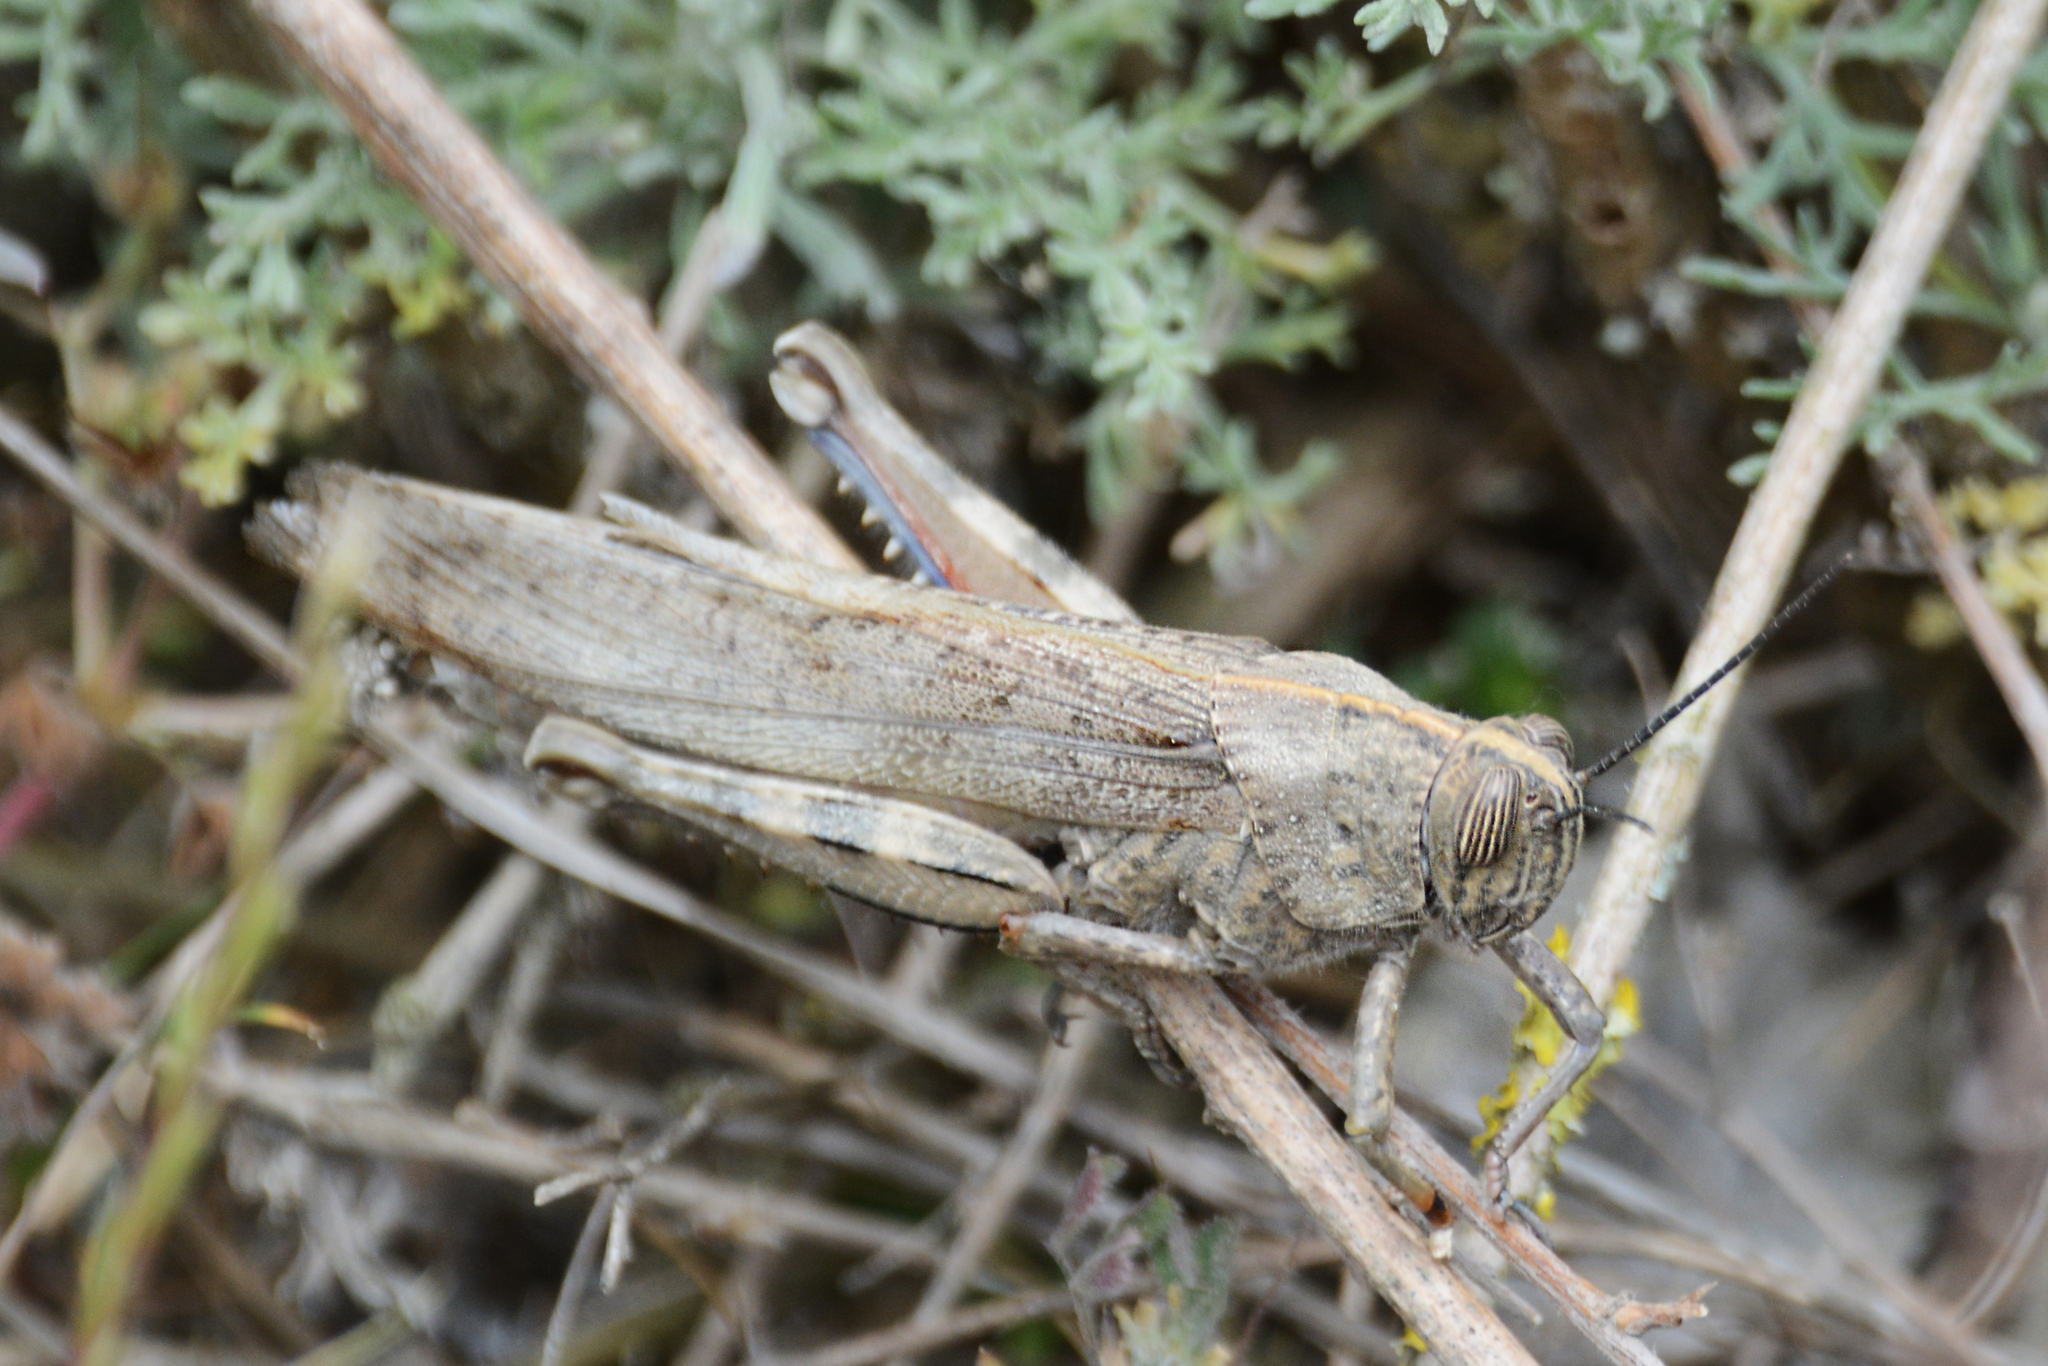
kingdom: Animalia
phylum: Arthropoda
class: Insecta
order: Orthoptera
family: Acrididae
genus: Anacridium
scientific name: Anacridium aegyptium
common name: Egyptian grasshopper
